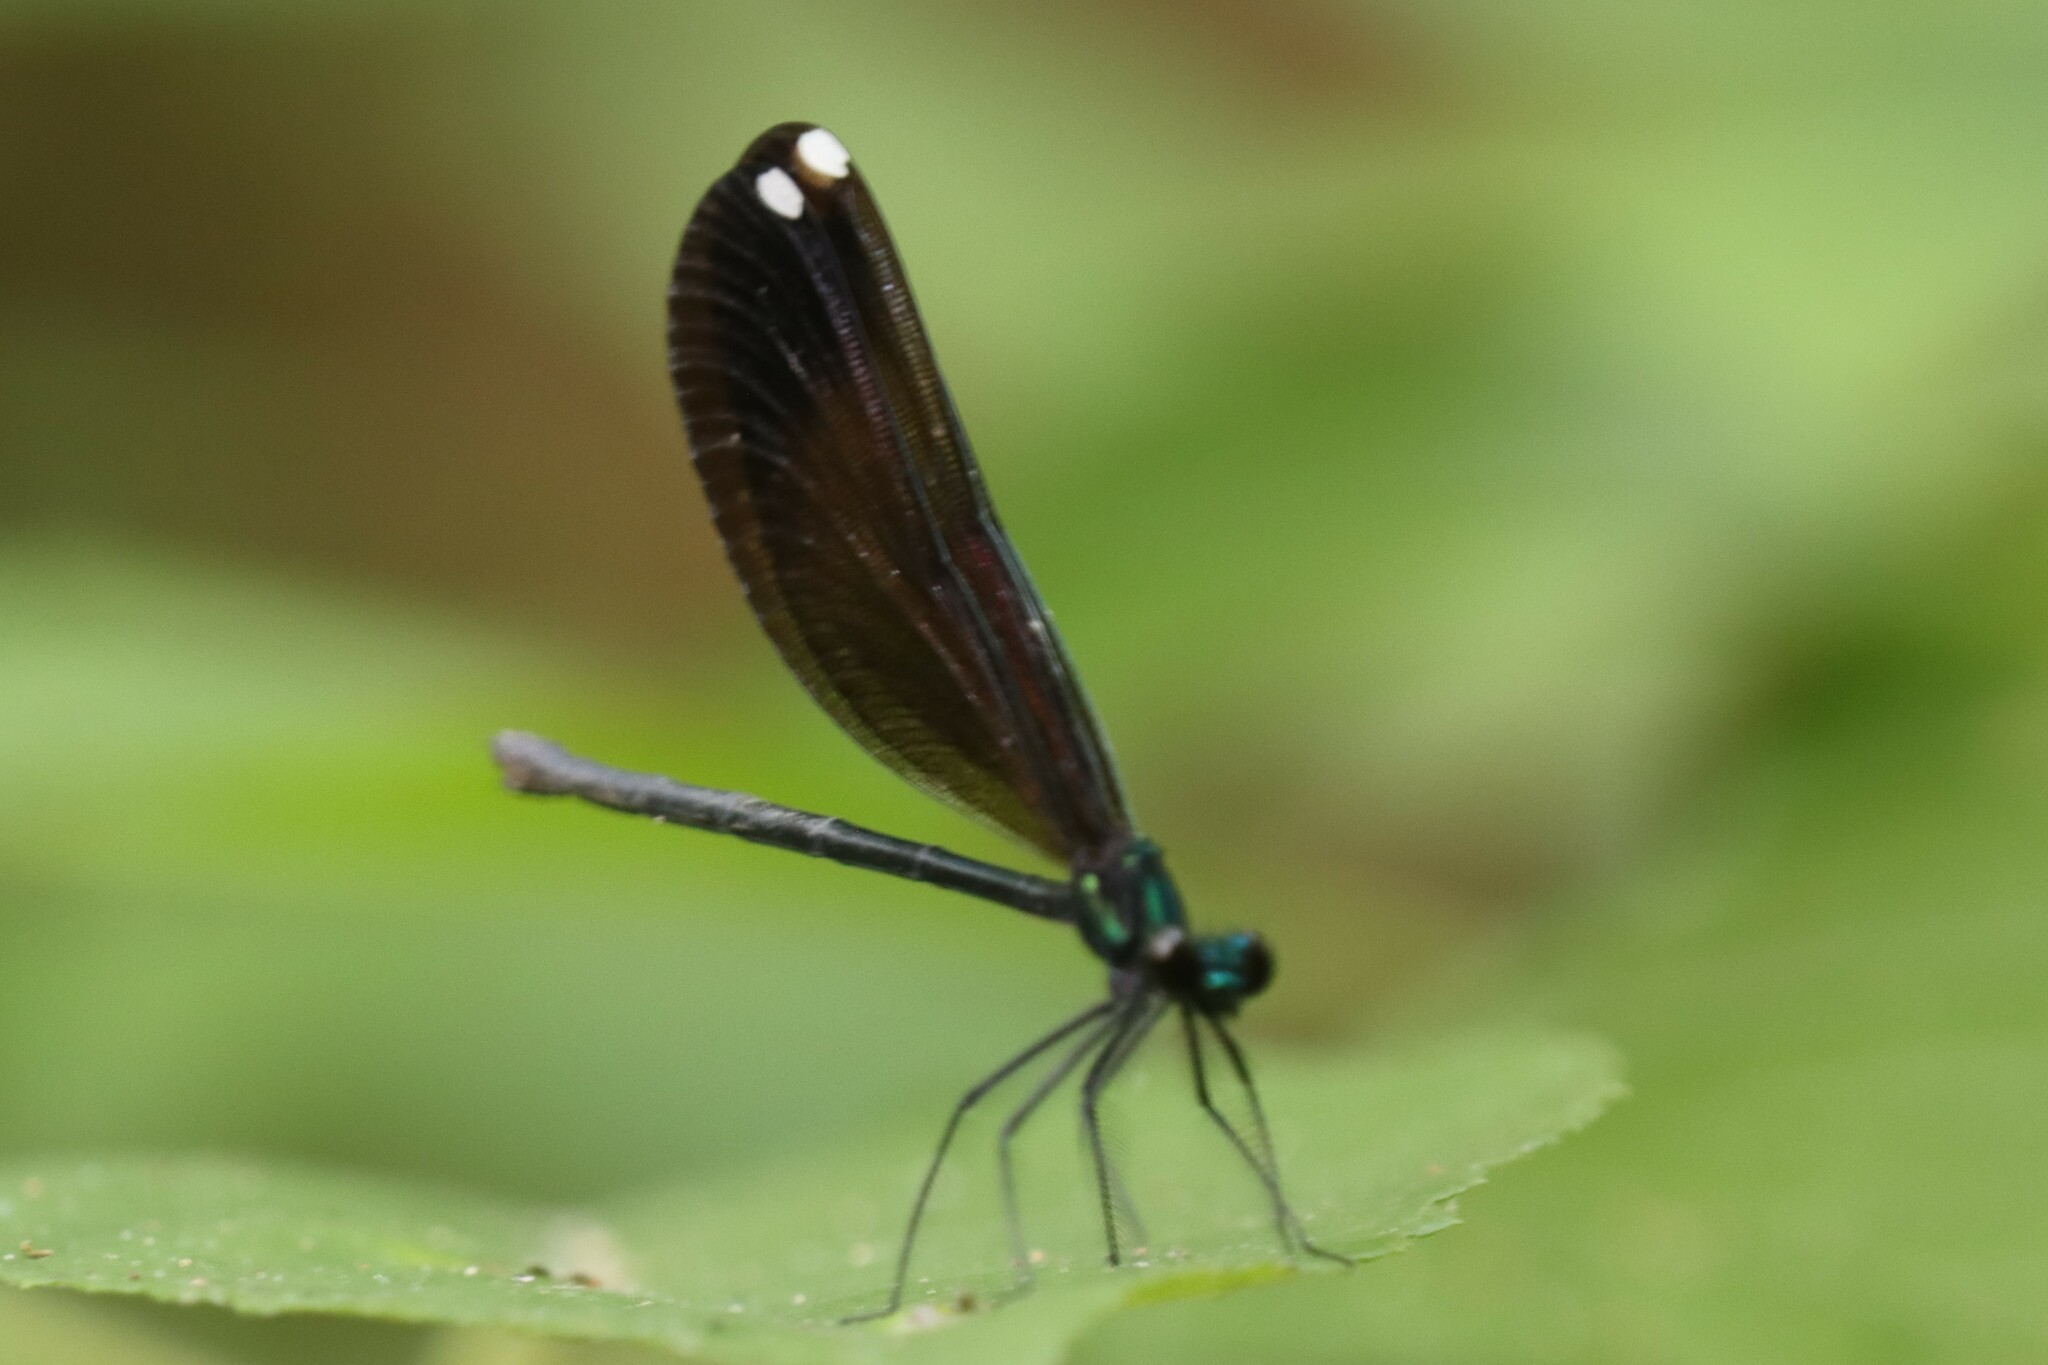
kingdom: Animalia
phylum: Arthropoda
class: Insecta
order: Odonata
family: Calopterygidae
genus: Calopteryx
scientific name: Calopteryx maculata
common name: Ebony jewelwing
